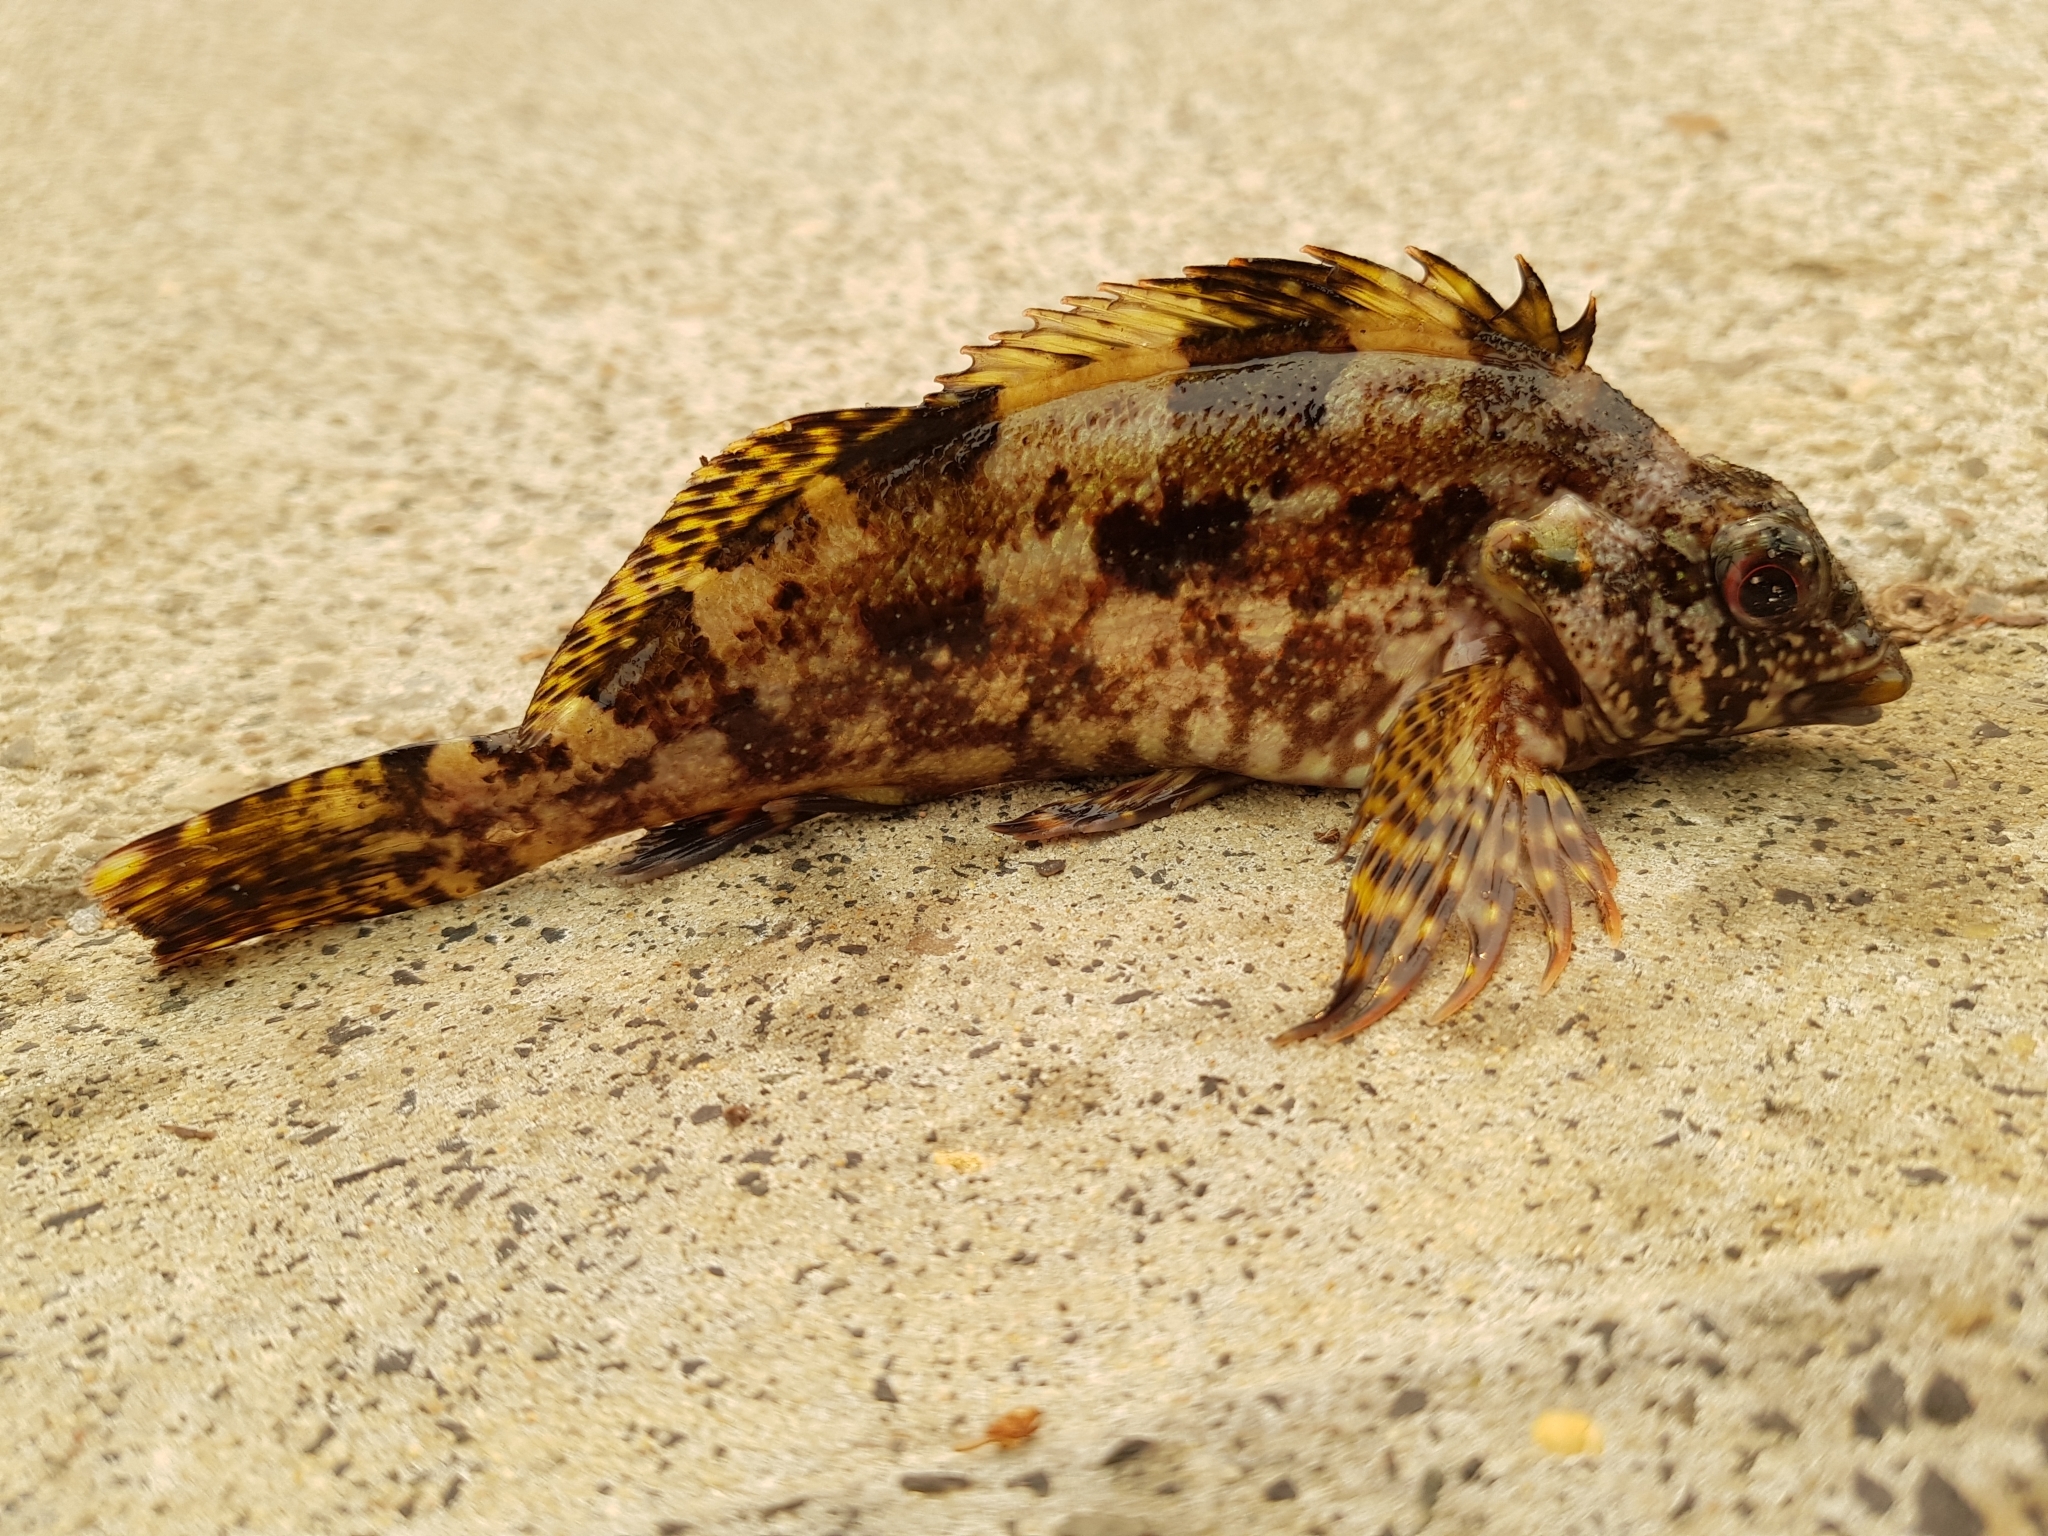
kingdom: Animalia
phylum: Chordata
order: Perciformes
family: Chironemidae
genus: Chironemus
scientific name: Chironemus marmoratus
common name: Kelpfish
